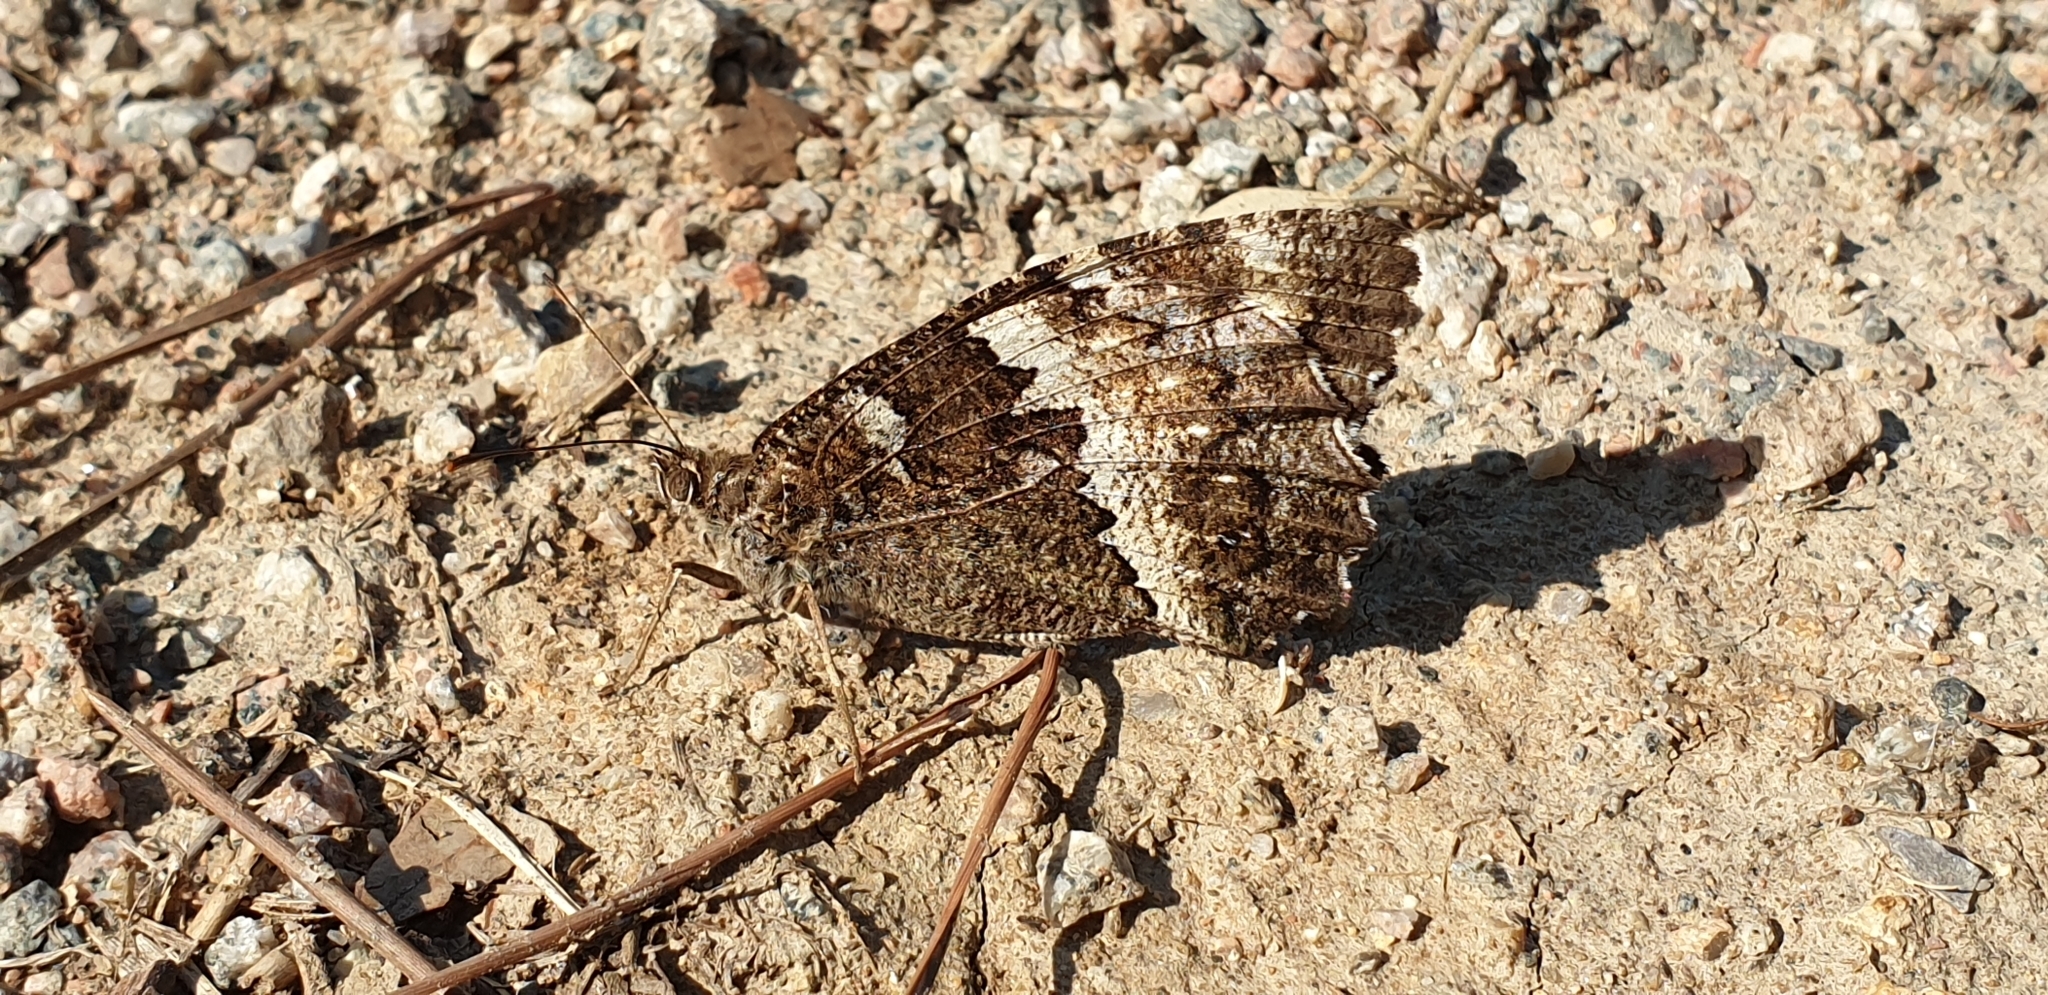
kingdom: Animalia
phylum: Arthropoda
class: Insecta
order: Lepidoptera
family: Lycaenidae
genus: Loweia
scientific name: Loweia tityrus
